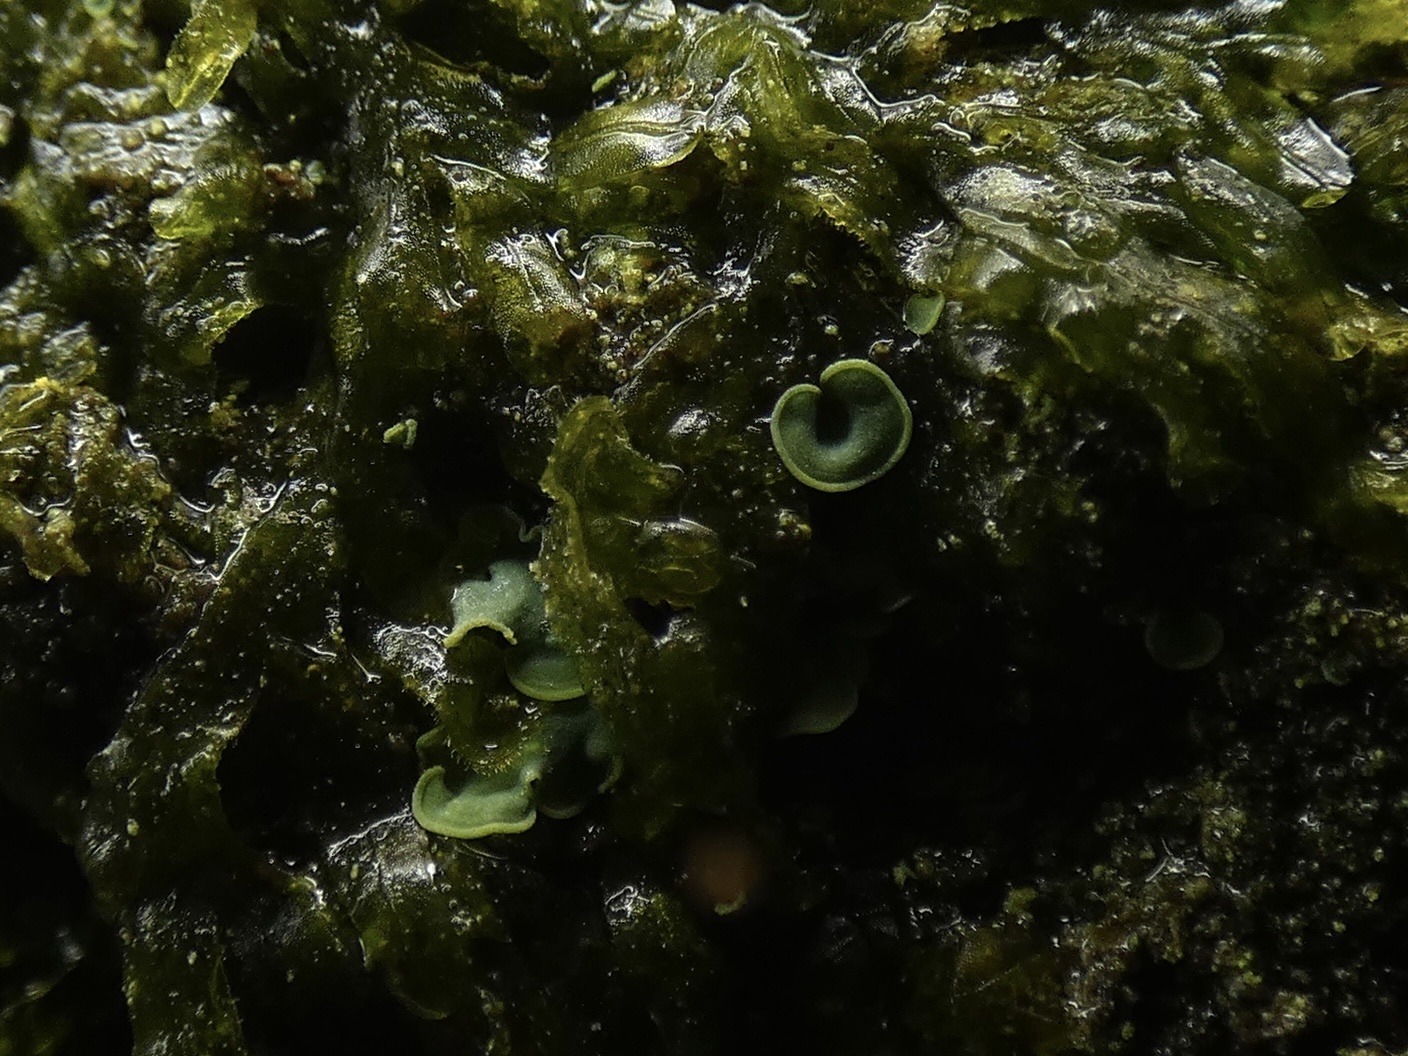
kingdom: Fungi
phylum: Ascomycota
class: Eurotiomycetes
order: Verrucariales
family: Verrucariaceae
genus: Normandina
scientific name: Normandina pulchella
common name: Elf ears lichen
